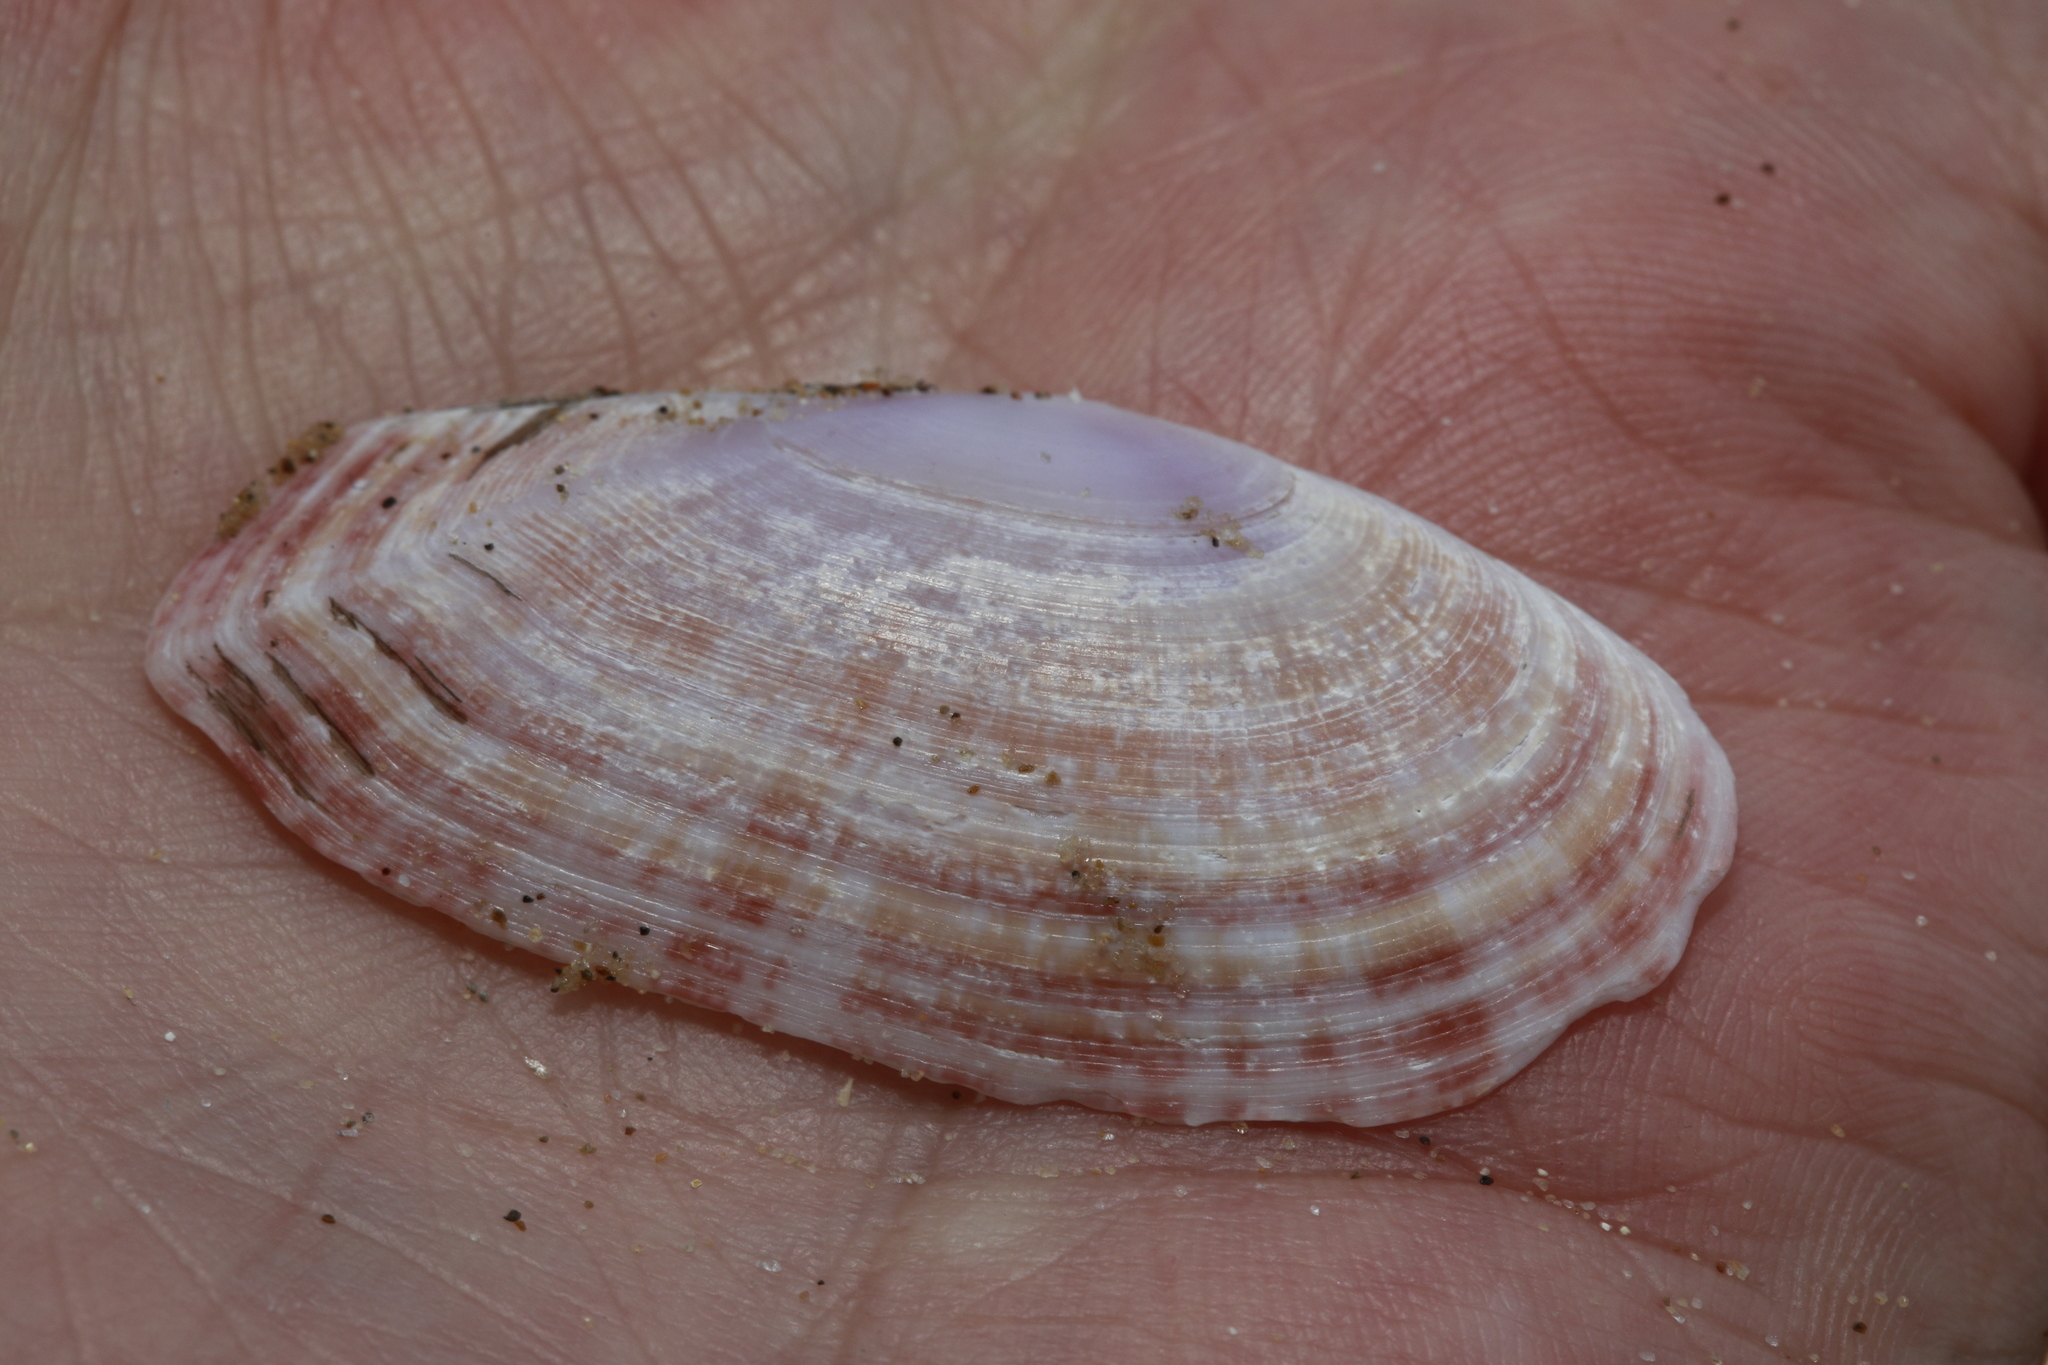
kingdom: Animalia
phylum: Mollusca
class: Bivalvia
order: Cardiida
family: Psammobiidae
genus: Gari
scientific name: Gari fervensis
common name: Faroe sunset shell
